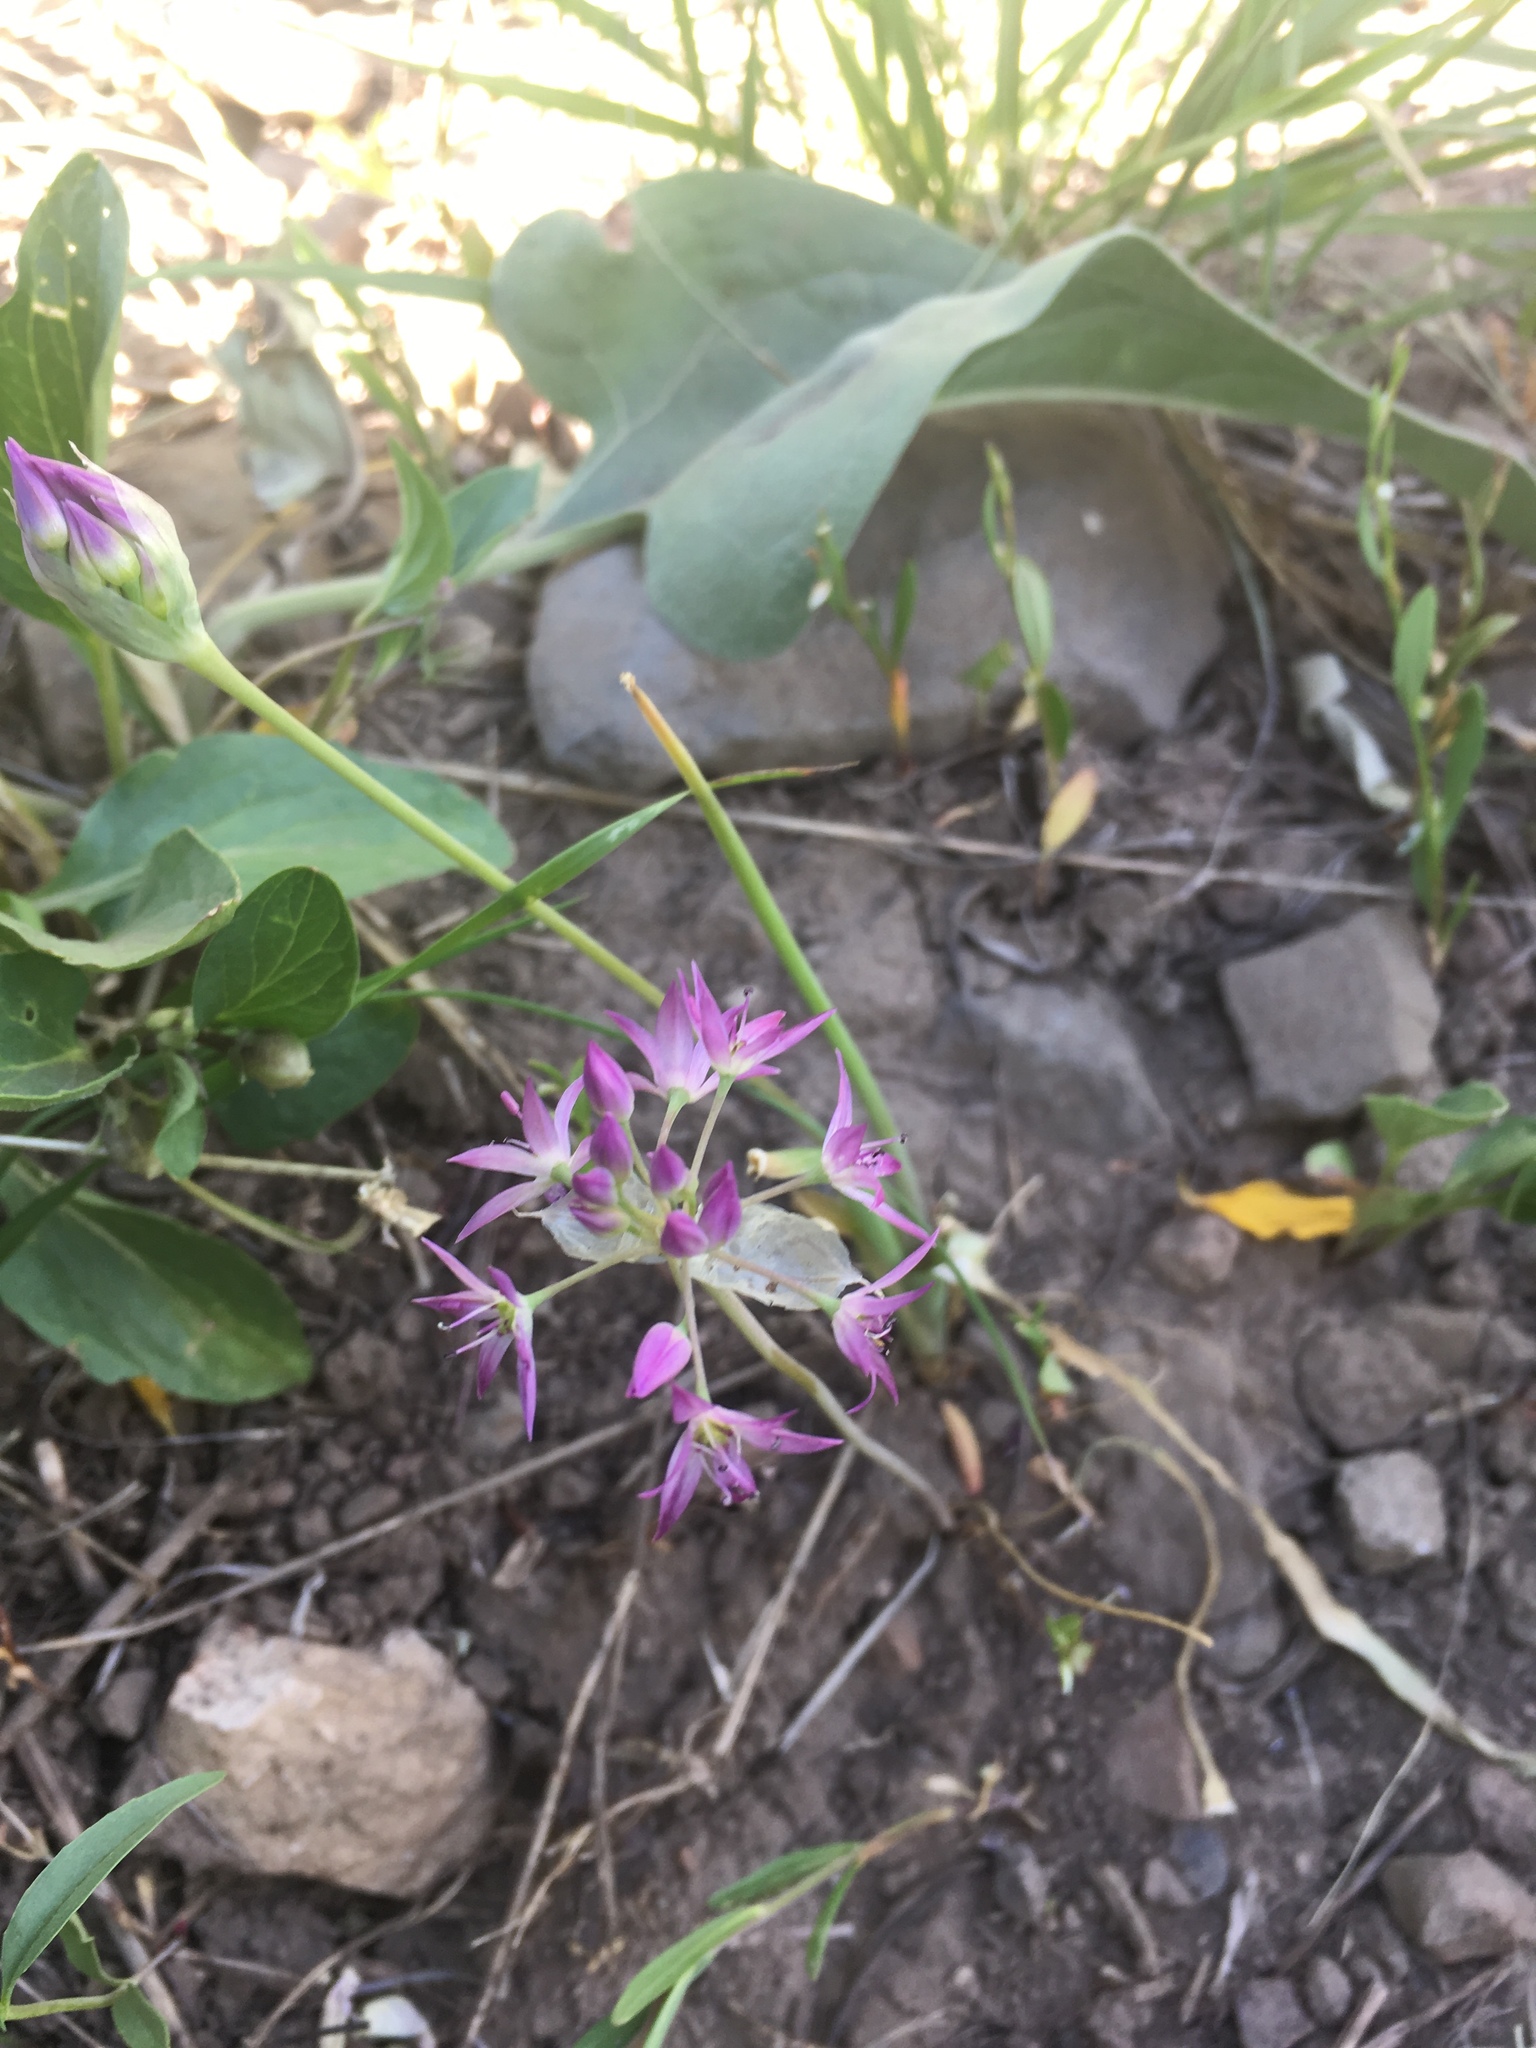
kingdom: Plantae
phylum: Tracheophyta
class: Liliopsida
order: Asparagales
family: Amaryllidaceae
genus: Allium
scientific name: Allium bisceptrum
